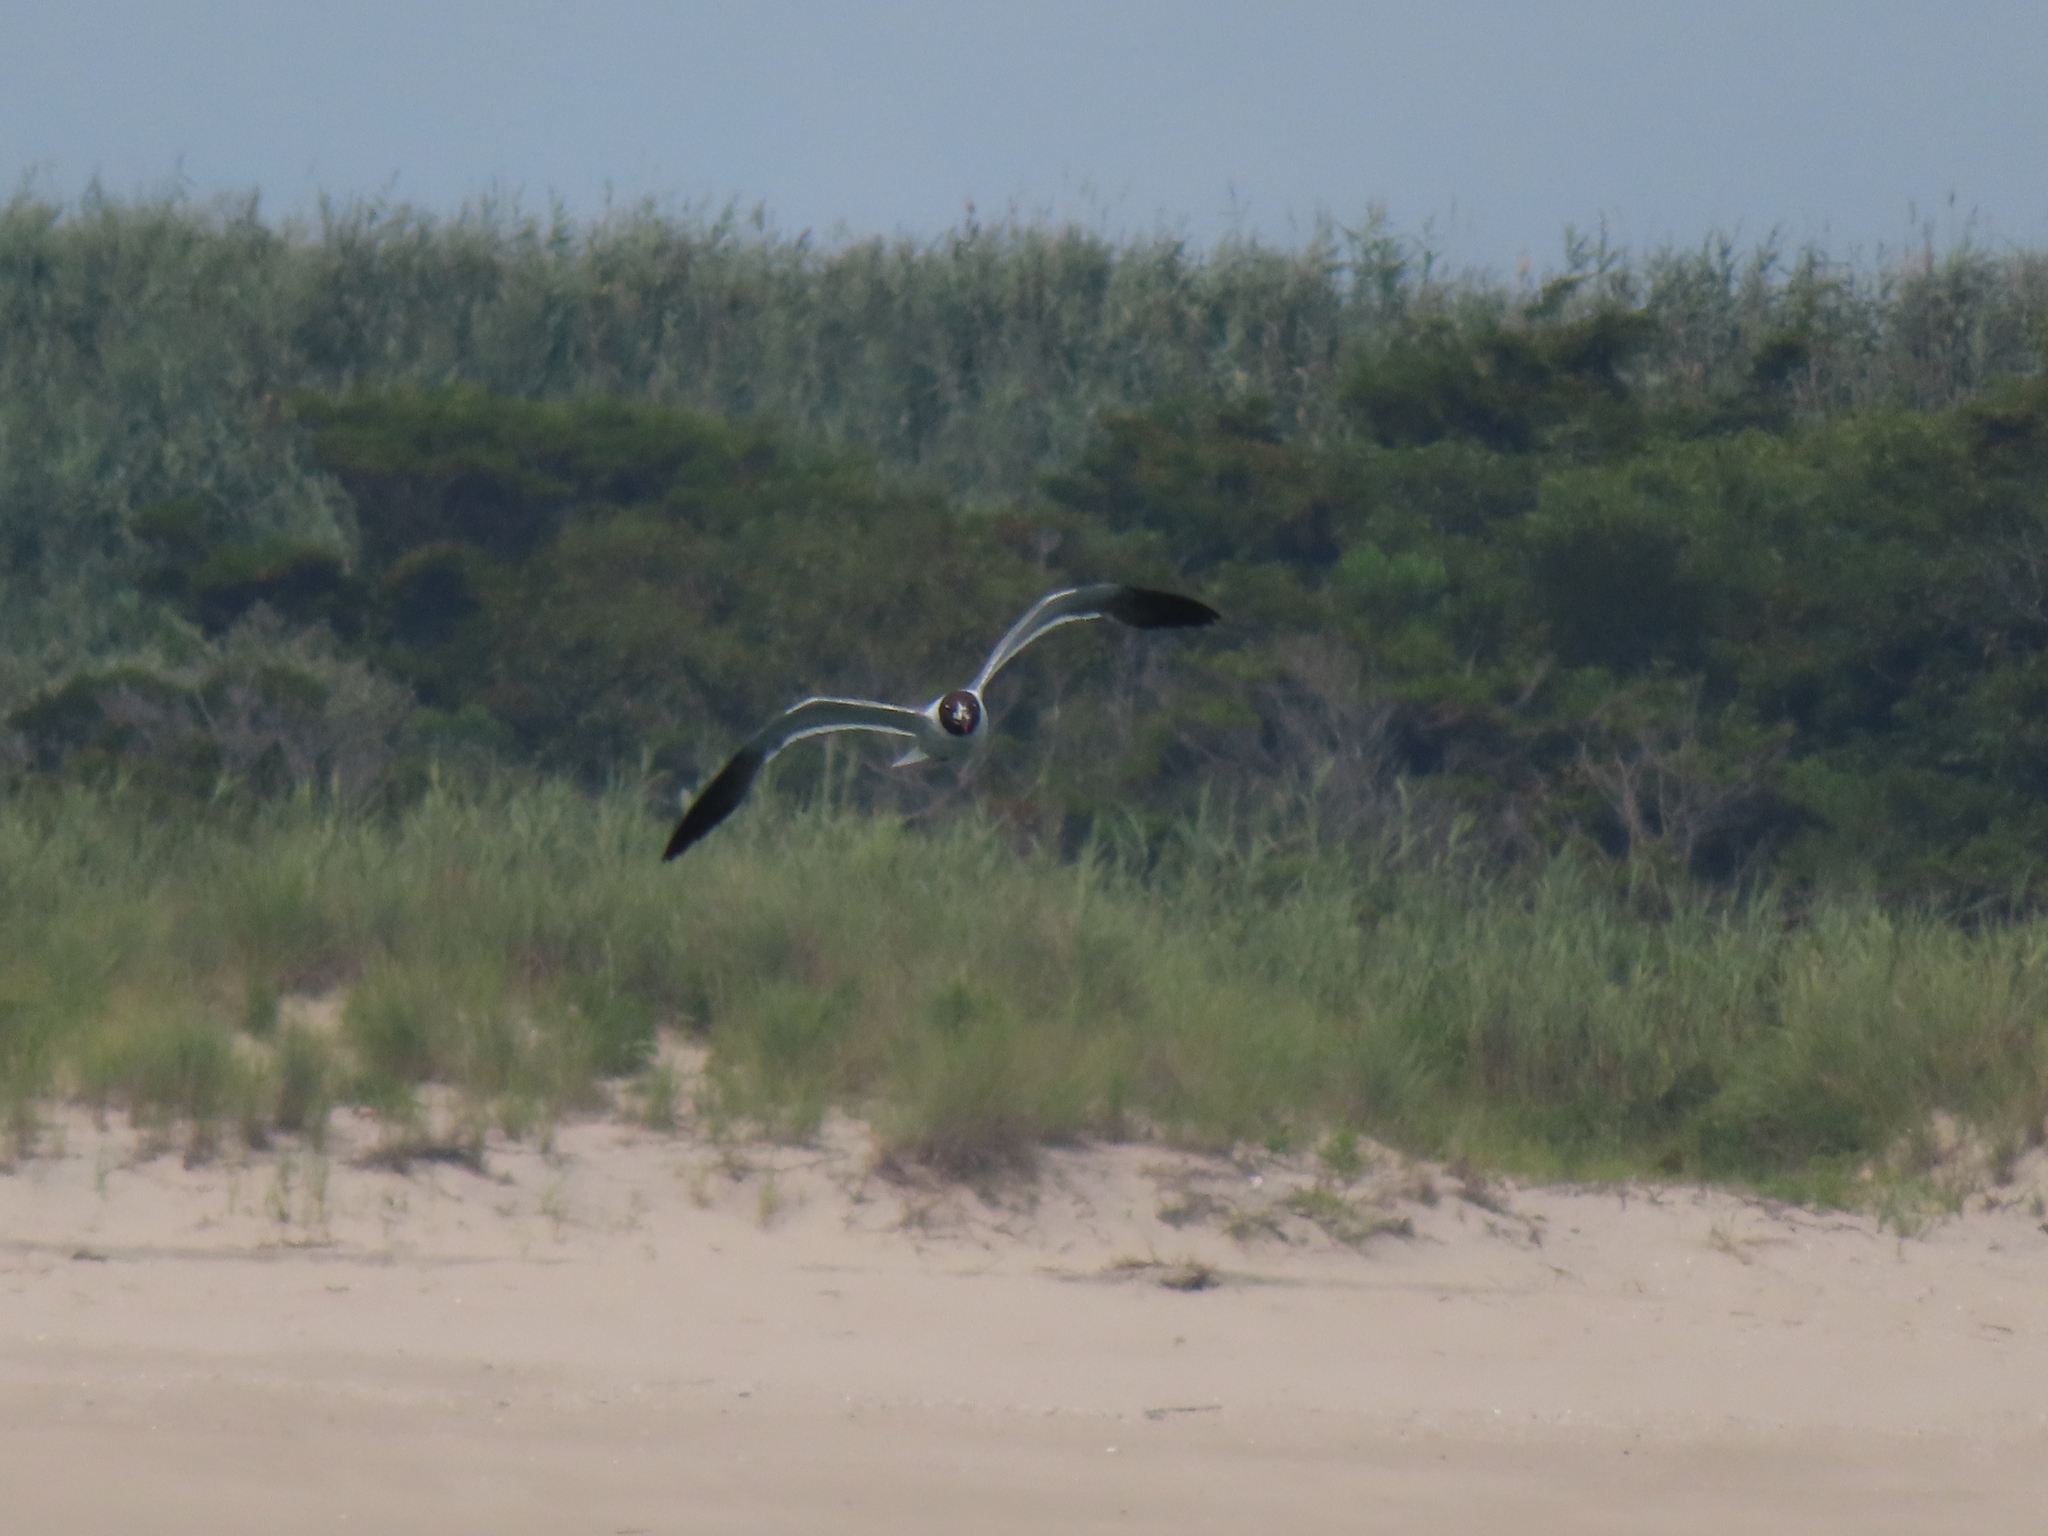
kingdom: Animalia
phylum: Chordata
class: Aves
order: Charadriiformes
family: Laridae
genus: Leucophaeus
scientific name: Leucophaeus atricilla
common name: Laughing gull
